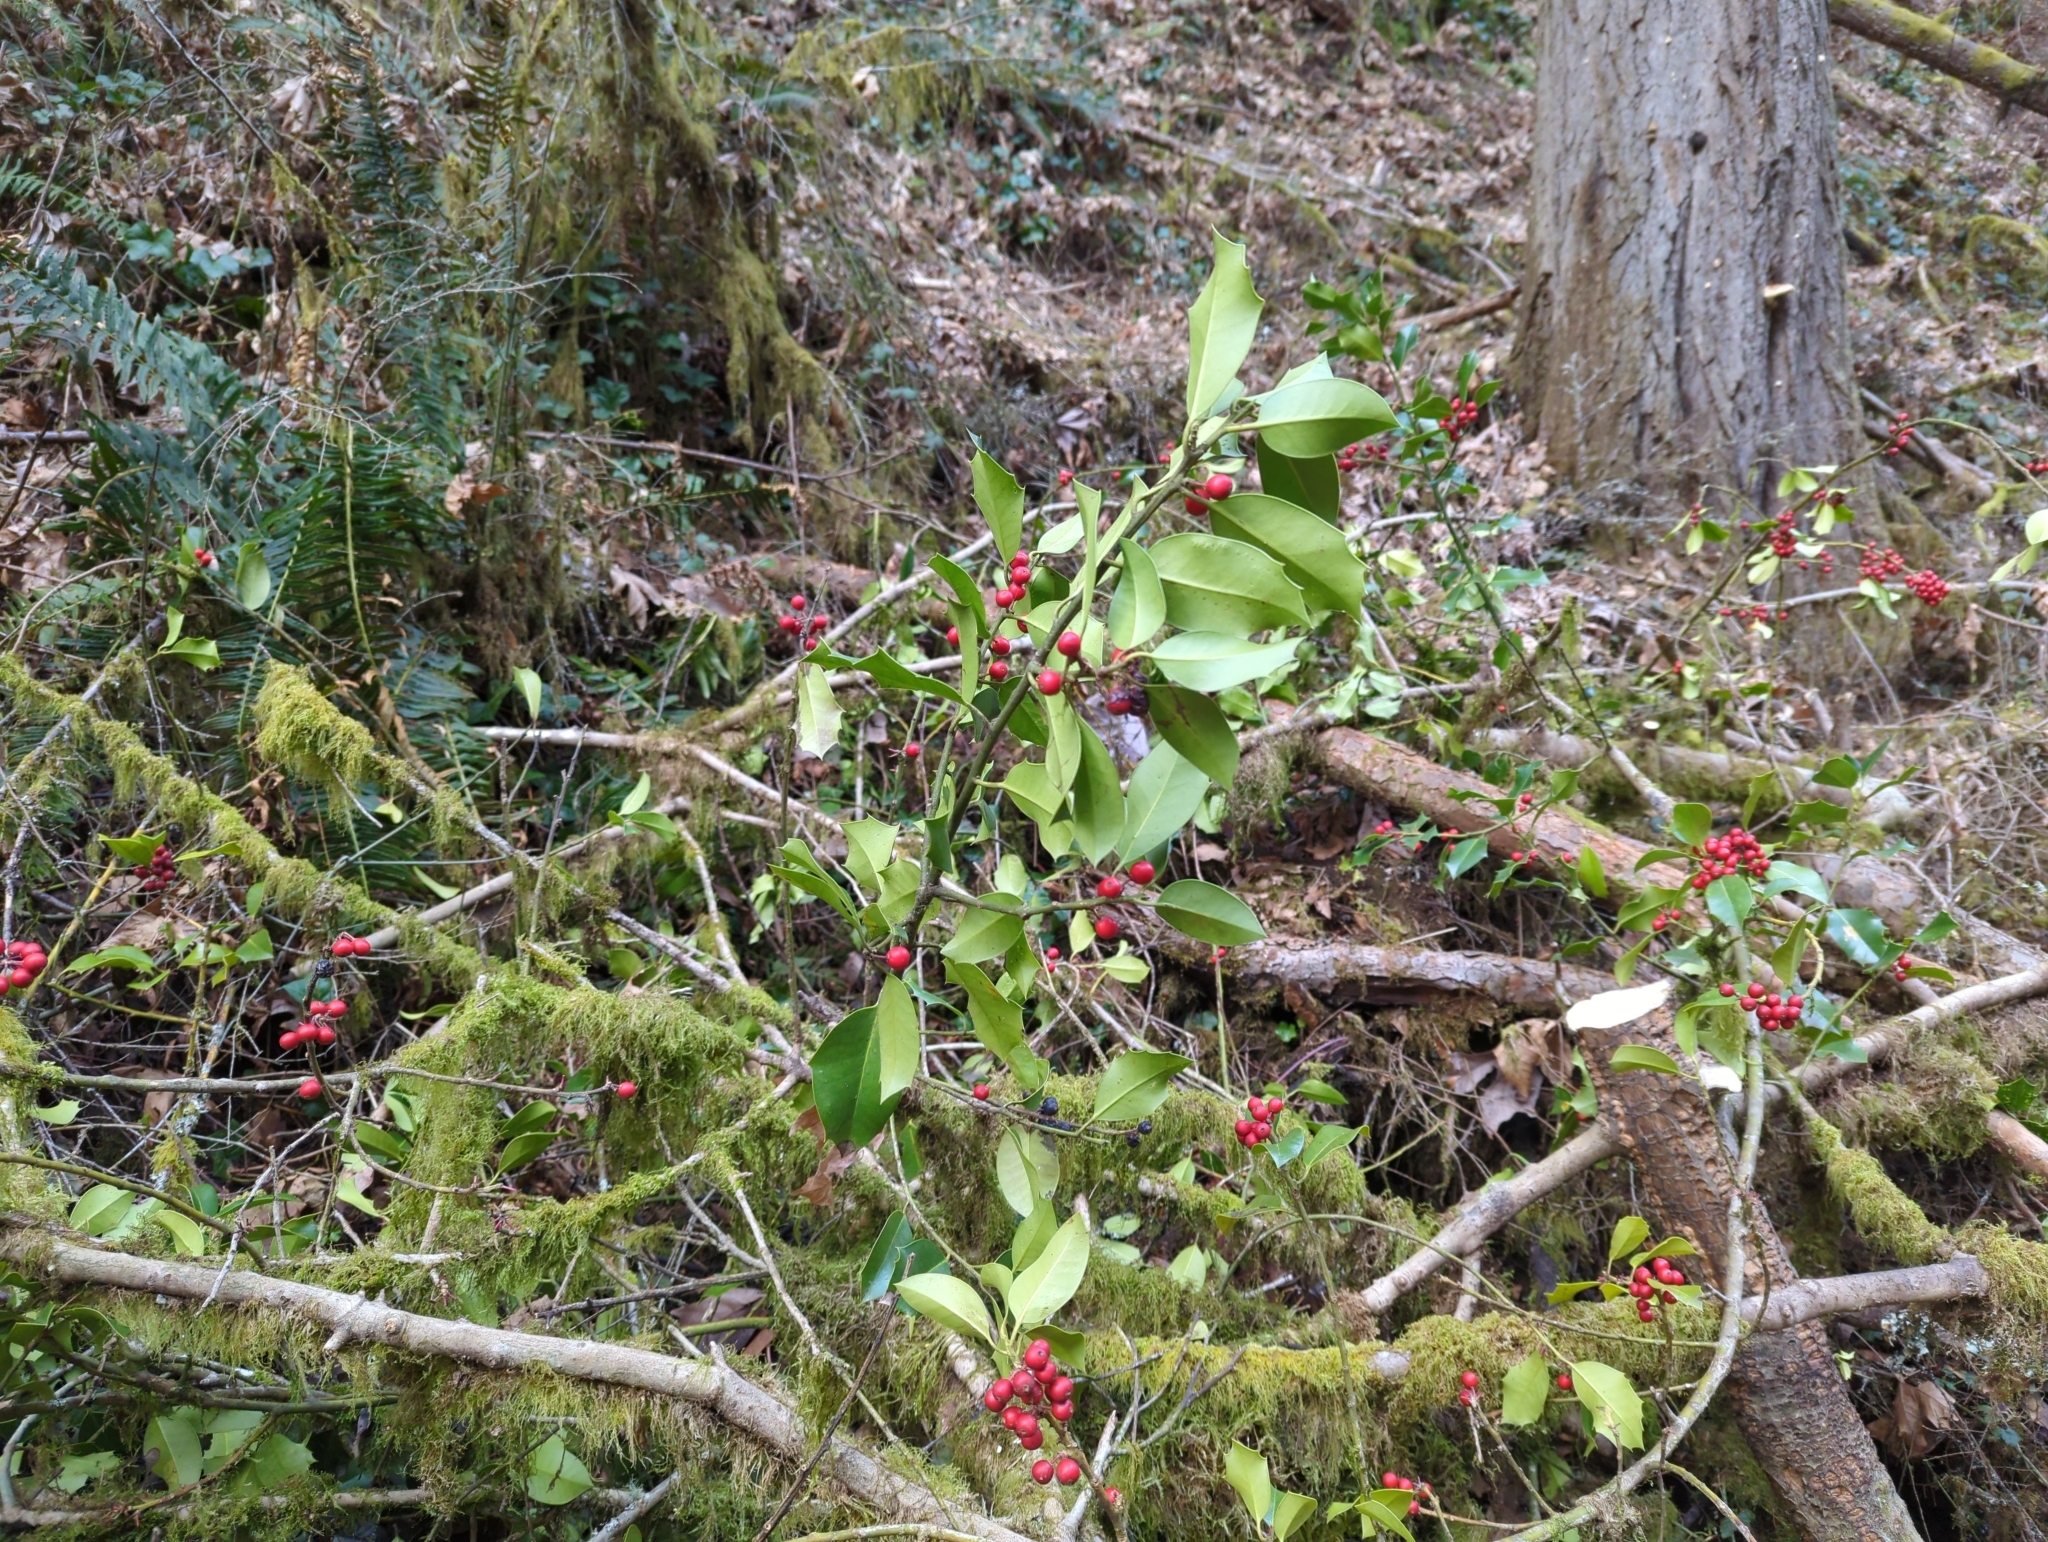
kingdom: Plantae
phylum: Tracheophyta
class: Magnoliopsida
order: Aquifoliales
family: Aquifoliaceae
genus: Ilex
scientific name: Ilex aquifolium
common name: English holly
